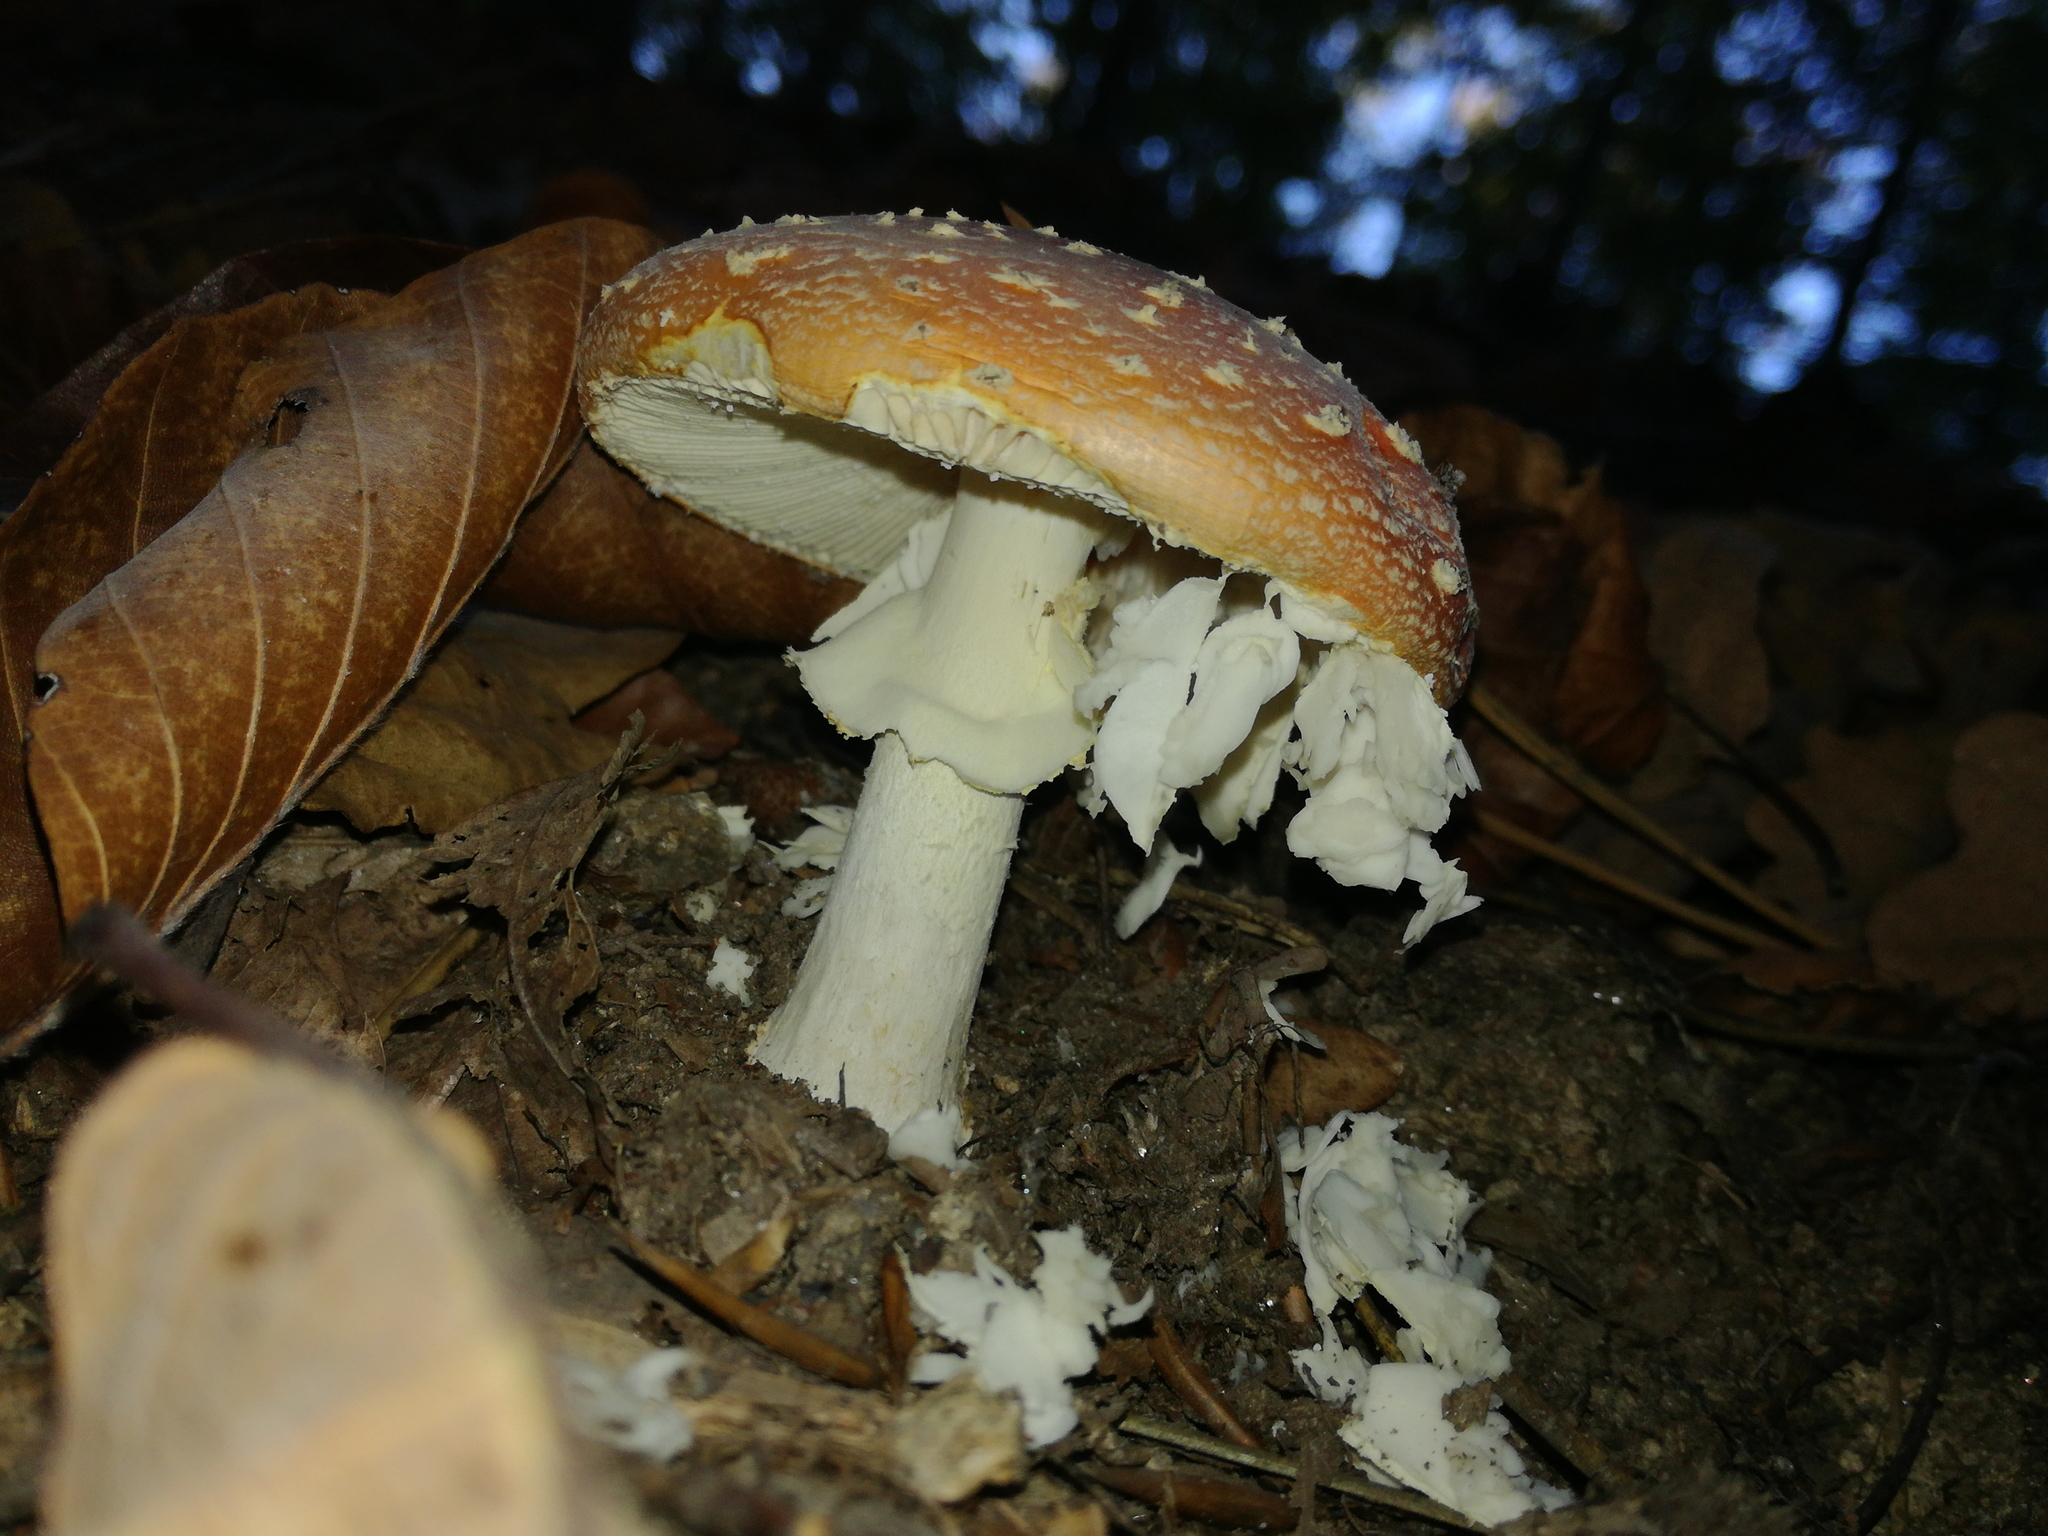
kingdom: Fungi
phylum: Basidiomycota
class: Agaricomycetes
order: Agaricales
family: Amanitaceae
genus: Amanita
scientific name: Amanita muscaria
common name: Fly agaric
